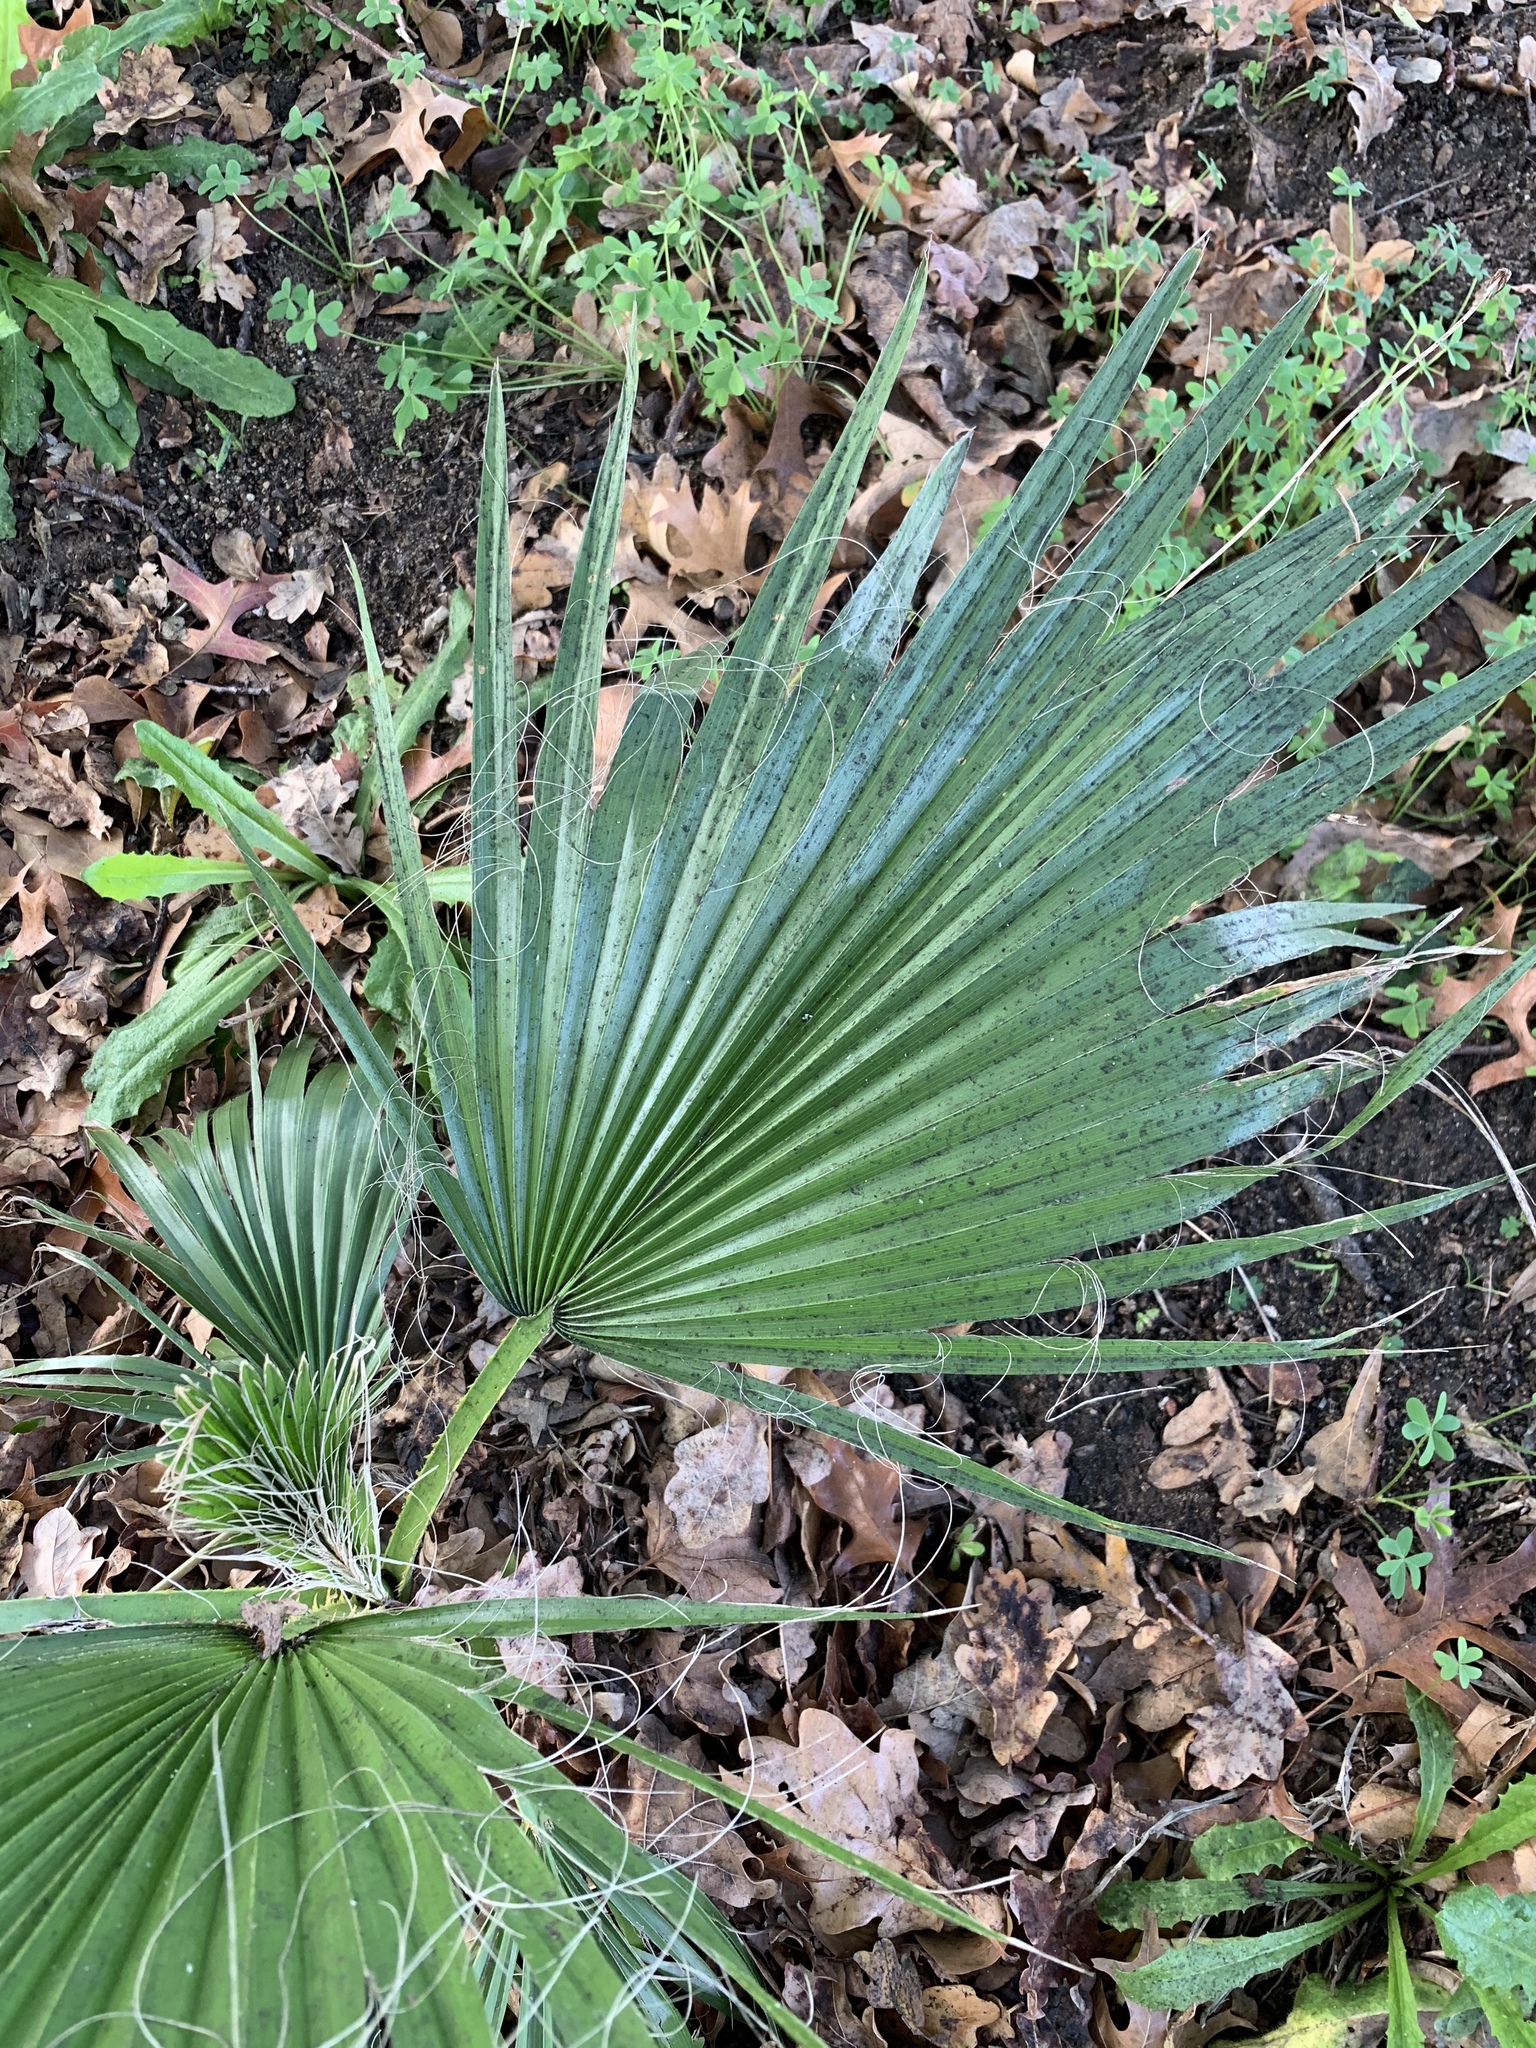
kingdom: Plantae
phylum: Tracheophyta
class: Liliopsida
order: Arecales
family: Arecaceae
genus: Washingtonia
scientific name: Washingtonia robusta
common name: Mexican fan palm
